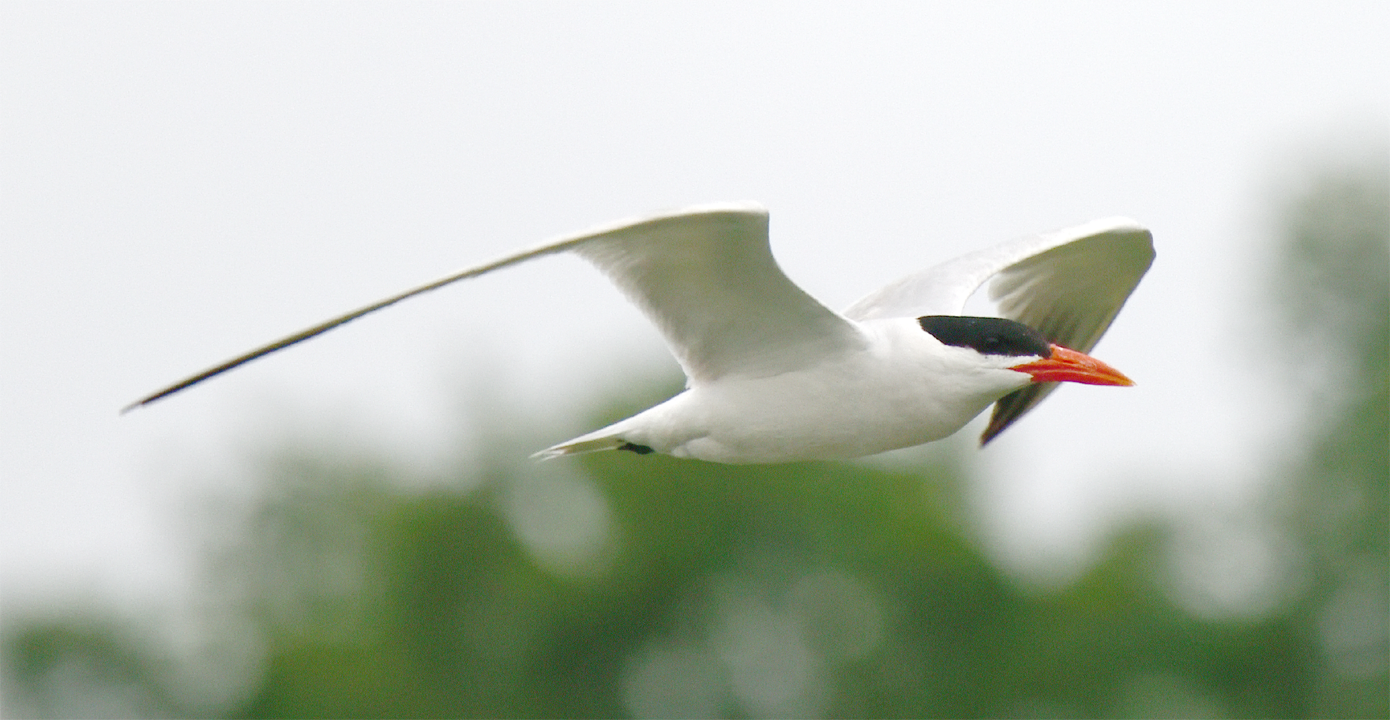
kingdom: Animalia
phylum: Chordata
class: Aves
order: Charadriiformes
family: Laridae
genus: Hydroprogne
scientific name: Hydroprogne caspia
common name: Caspian tern
